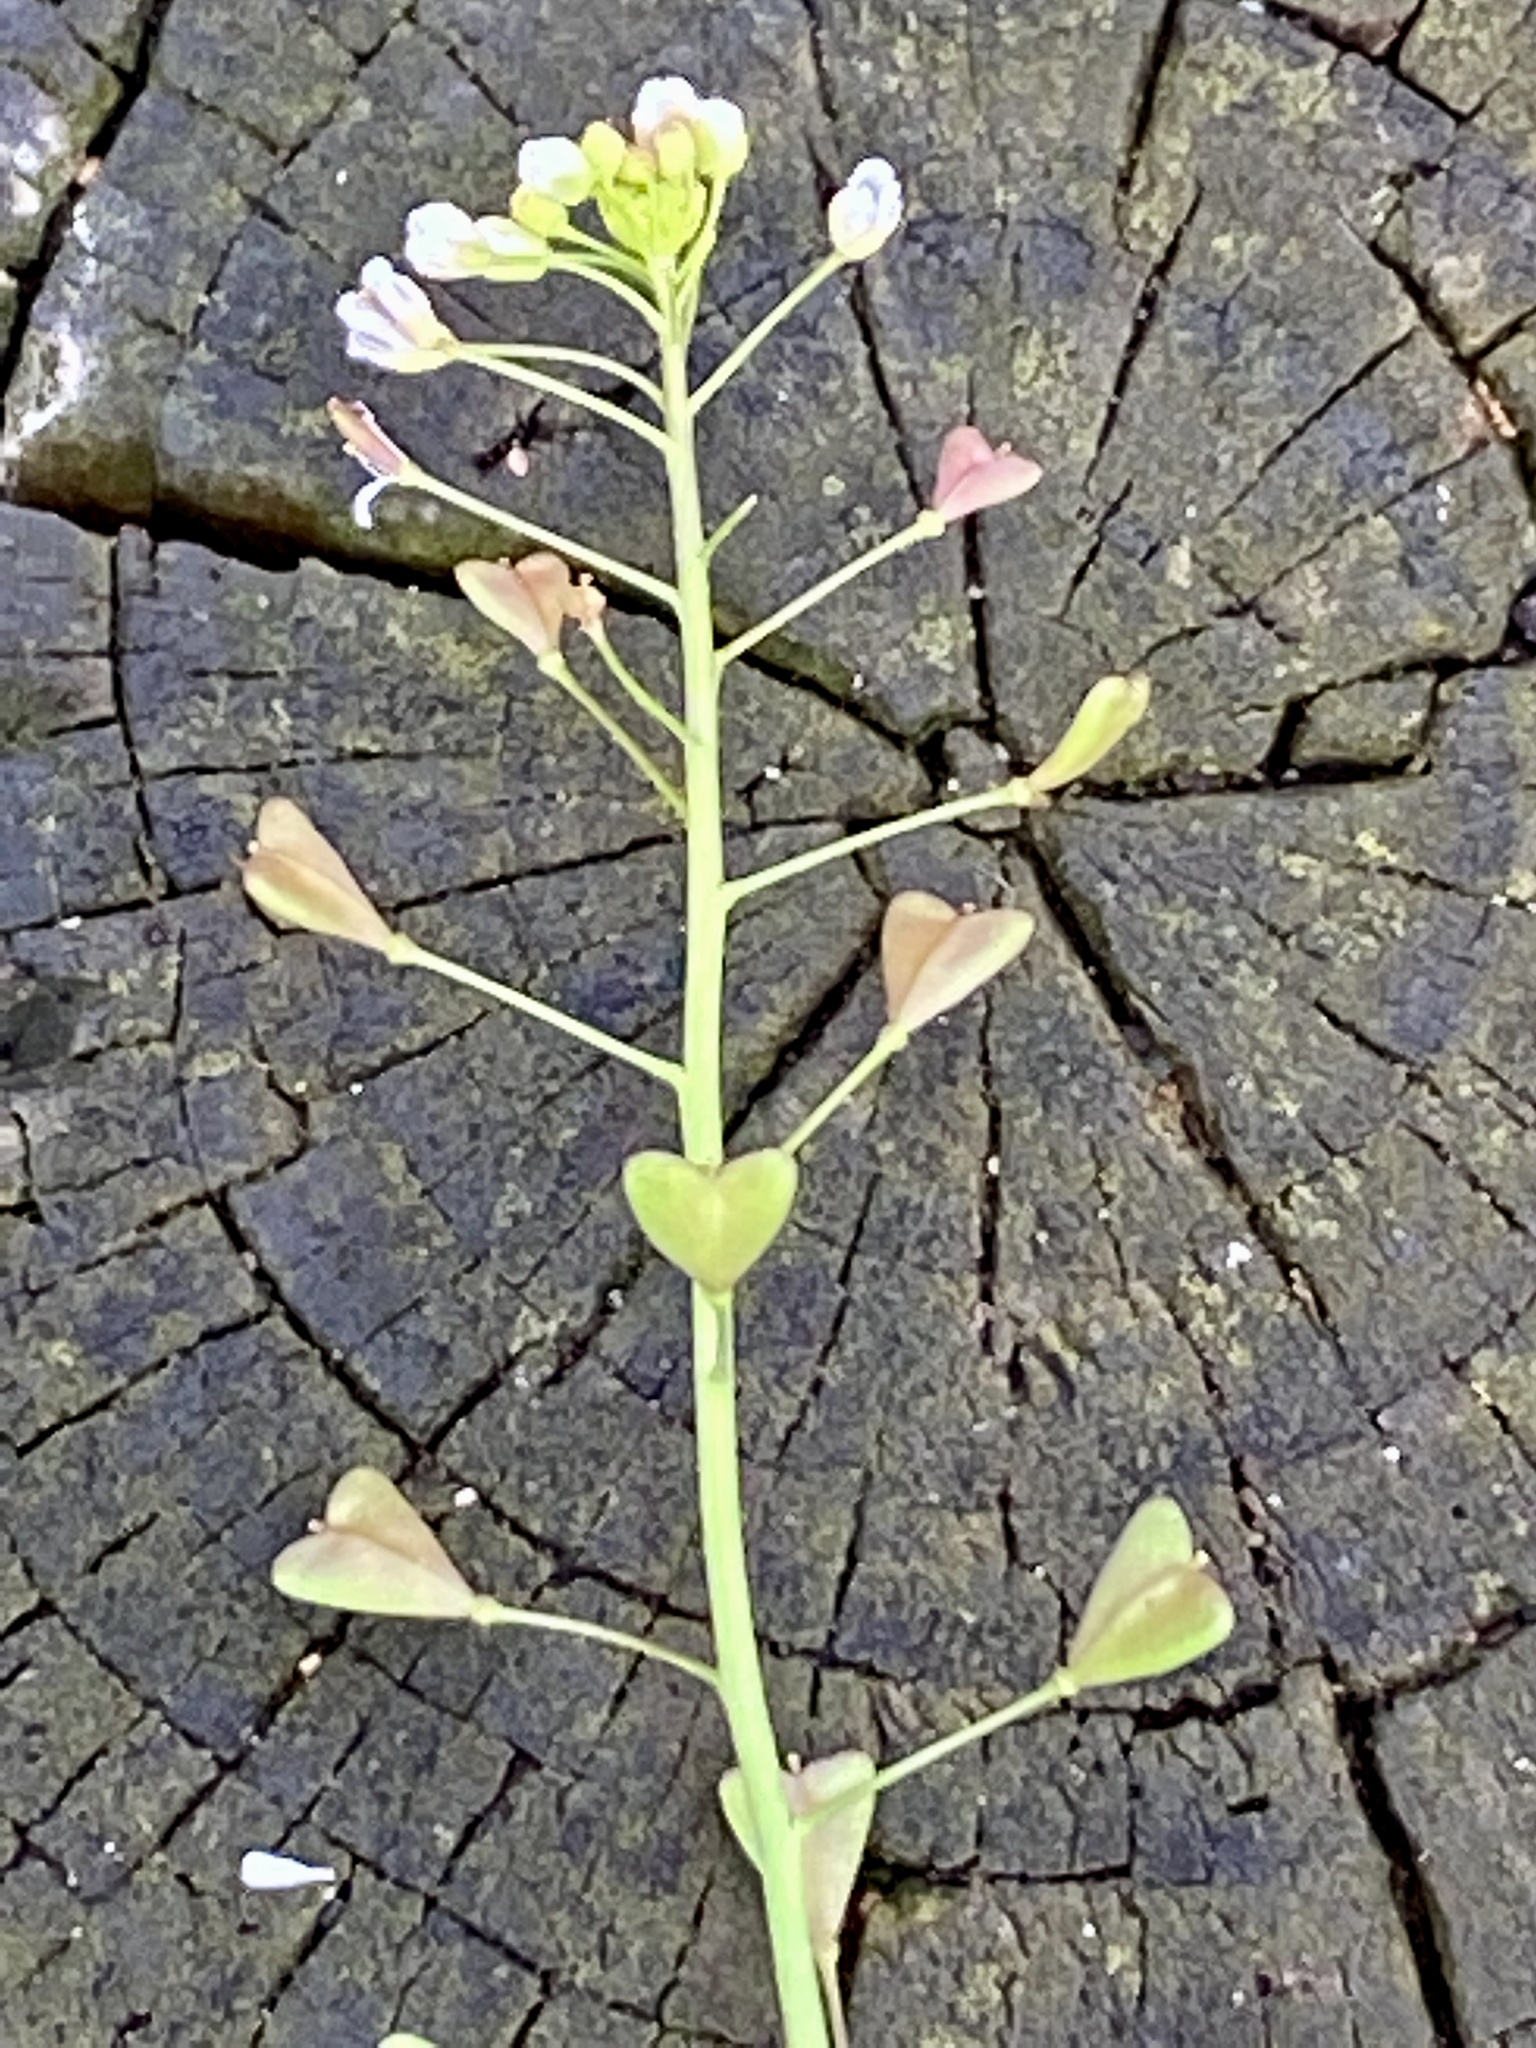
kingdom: Plantae
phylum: Tracheophyta
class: Magnoliopsida
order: Brassicales
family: Brassicaceae
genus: Capsella
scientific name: Capsella bursa-pastoris
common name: Shepherd's purse
